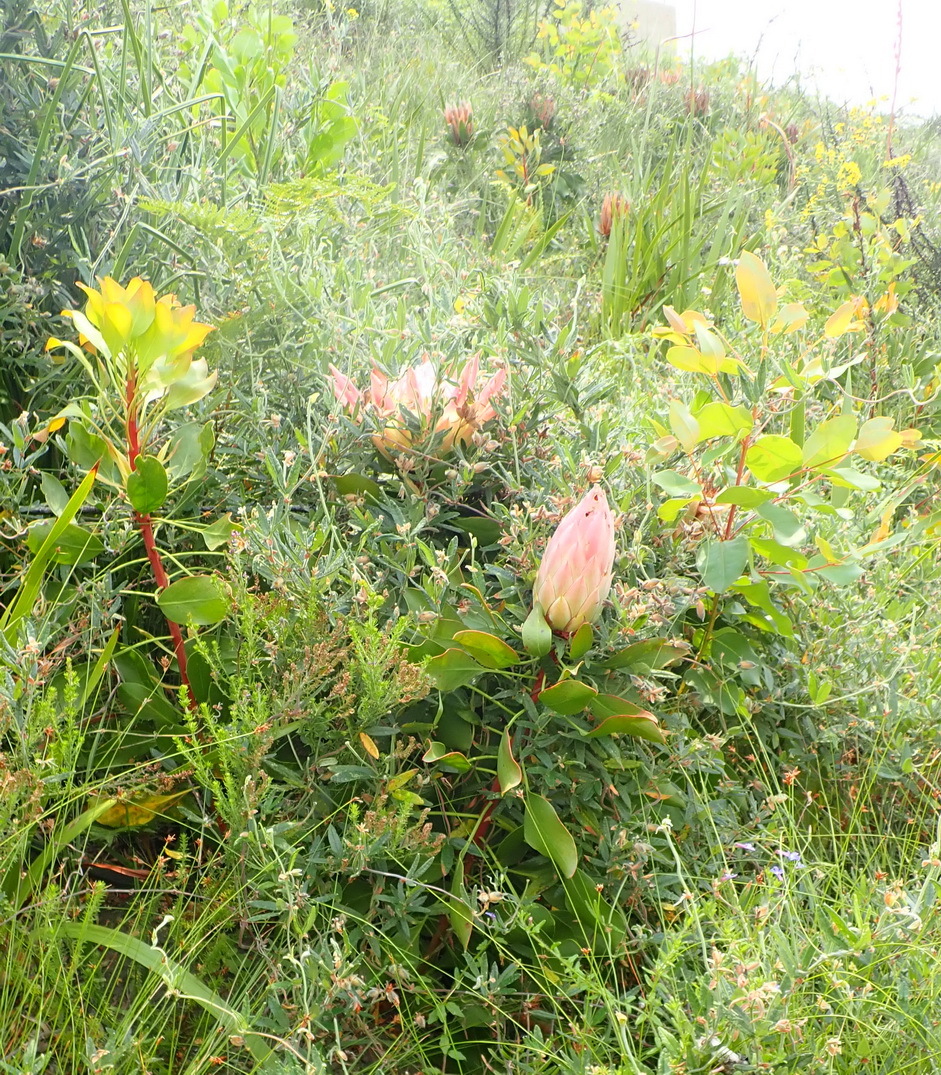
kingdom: Plantae
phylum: Tracheophyta
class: Magnoliopsida
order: Proteales
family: Proteaceae
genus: Protea
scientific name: Protea cynaroides
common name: King protea
